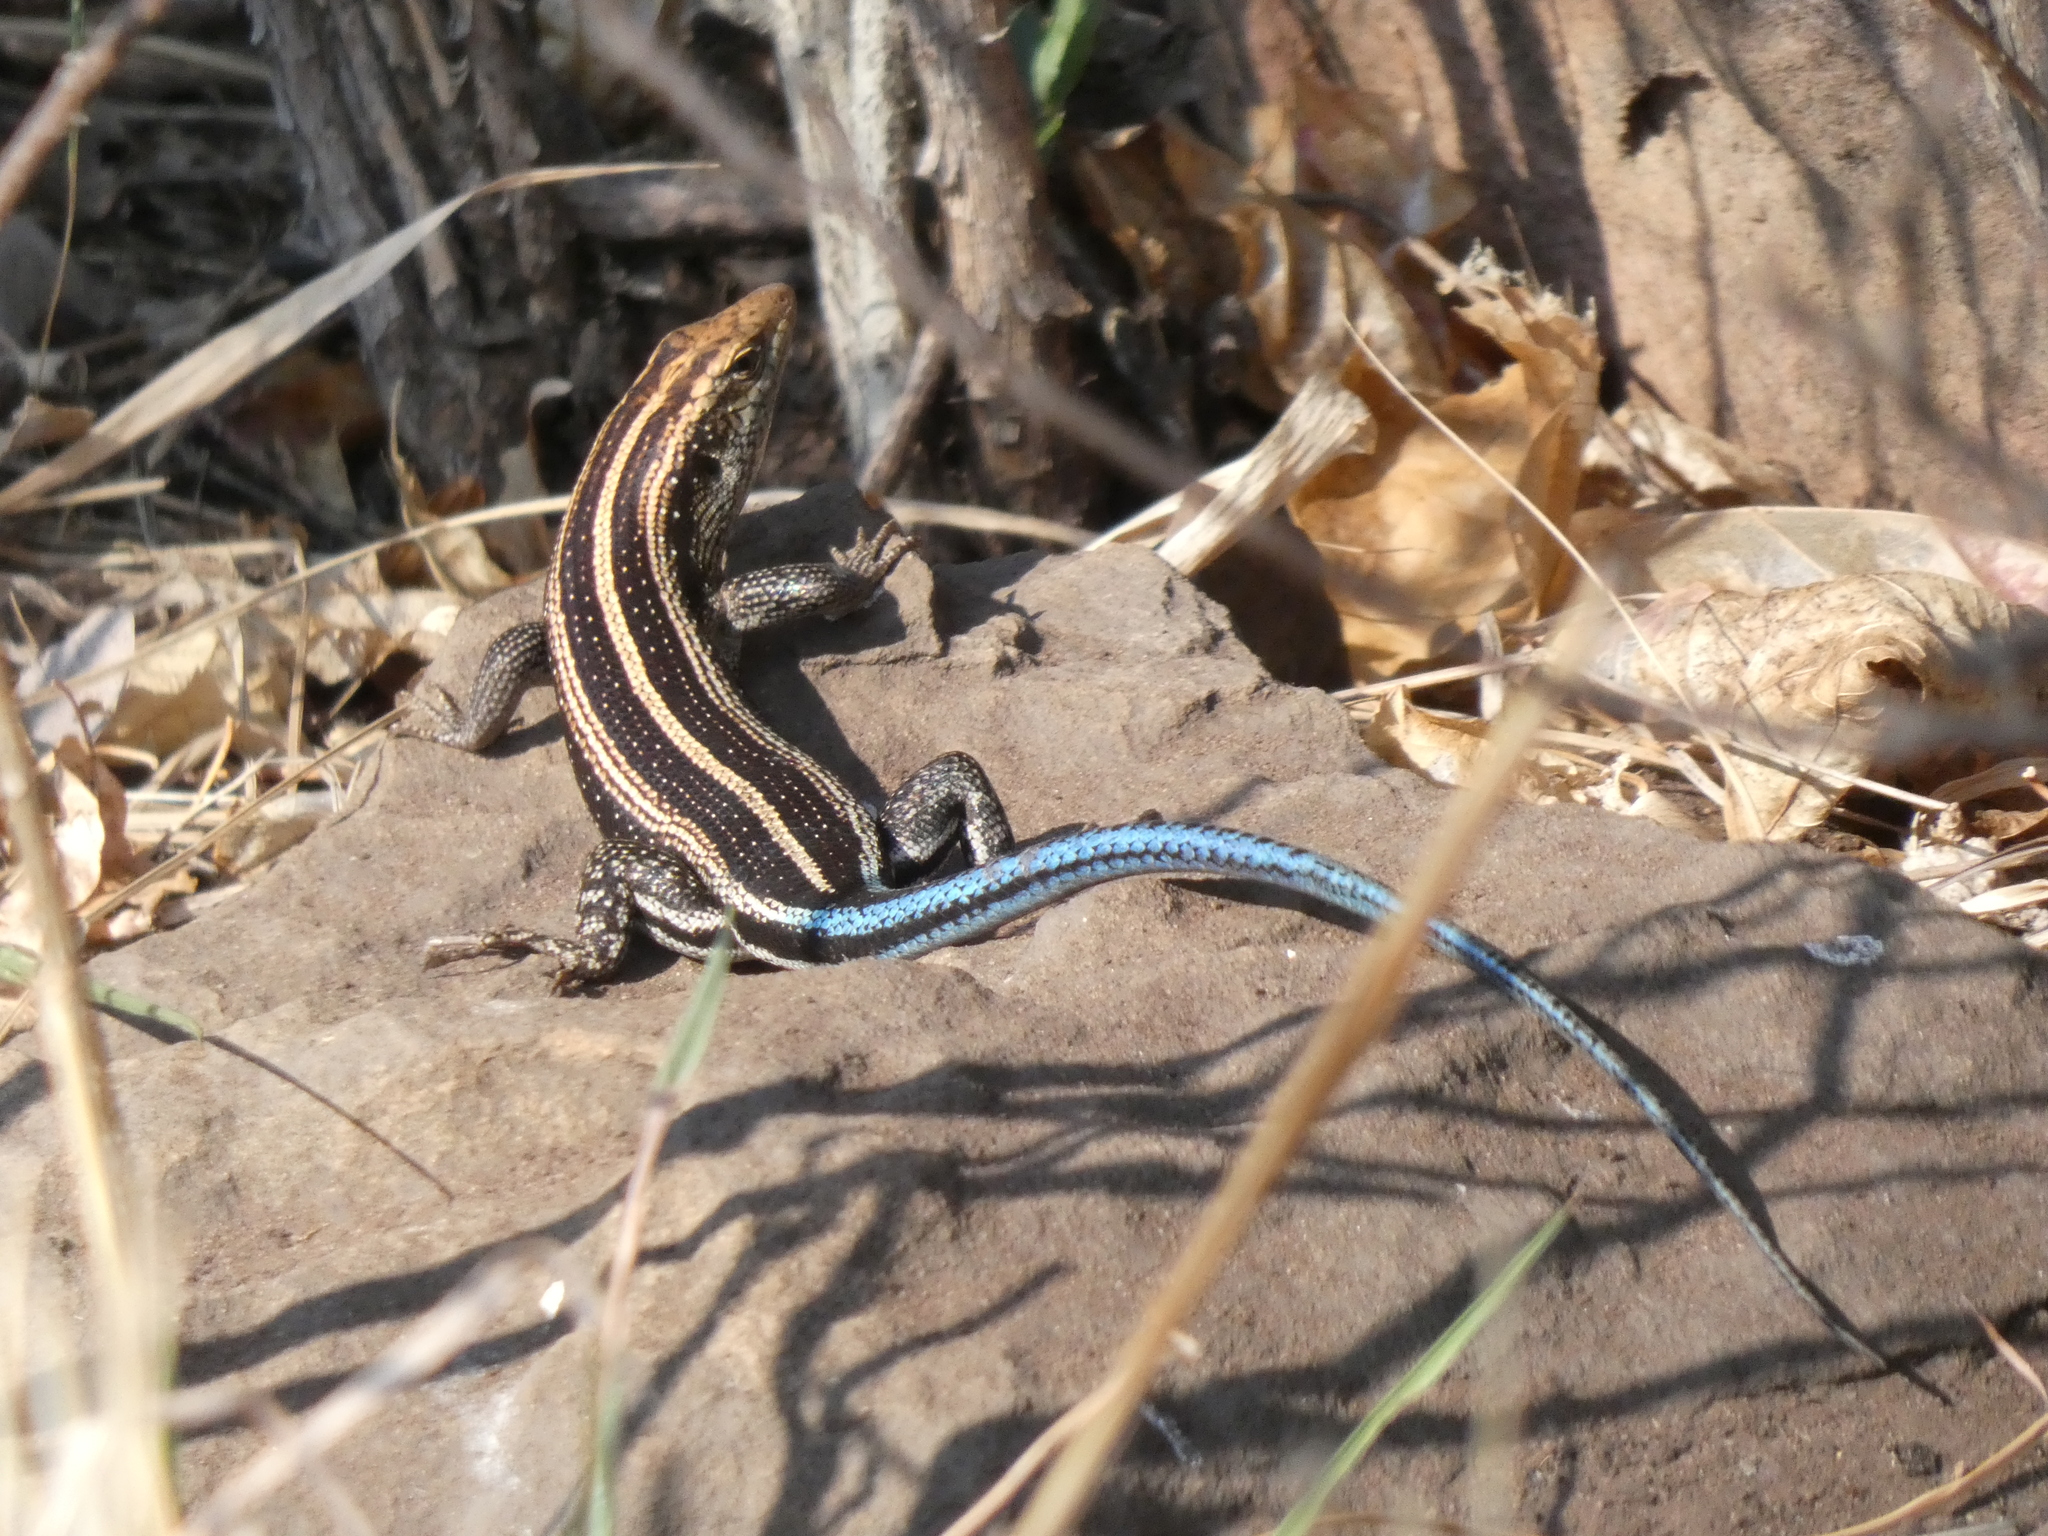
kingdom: Animalia
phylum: Chordata
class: Squamata
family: Scincidae
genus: Trachylepis
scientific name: Trachylepis margaritifera
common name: Rainbow skink
